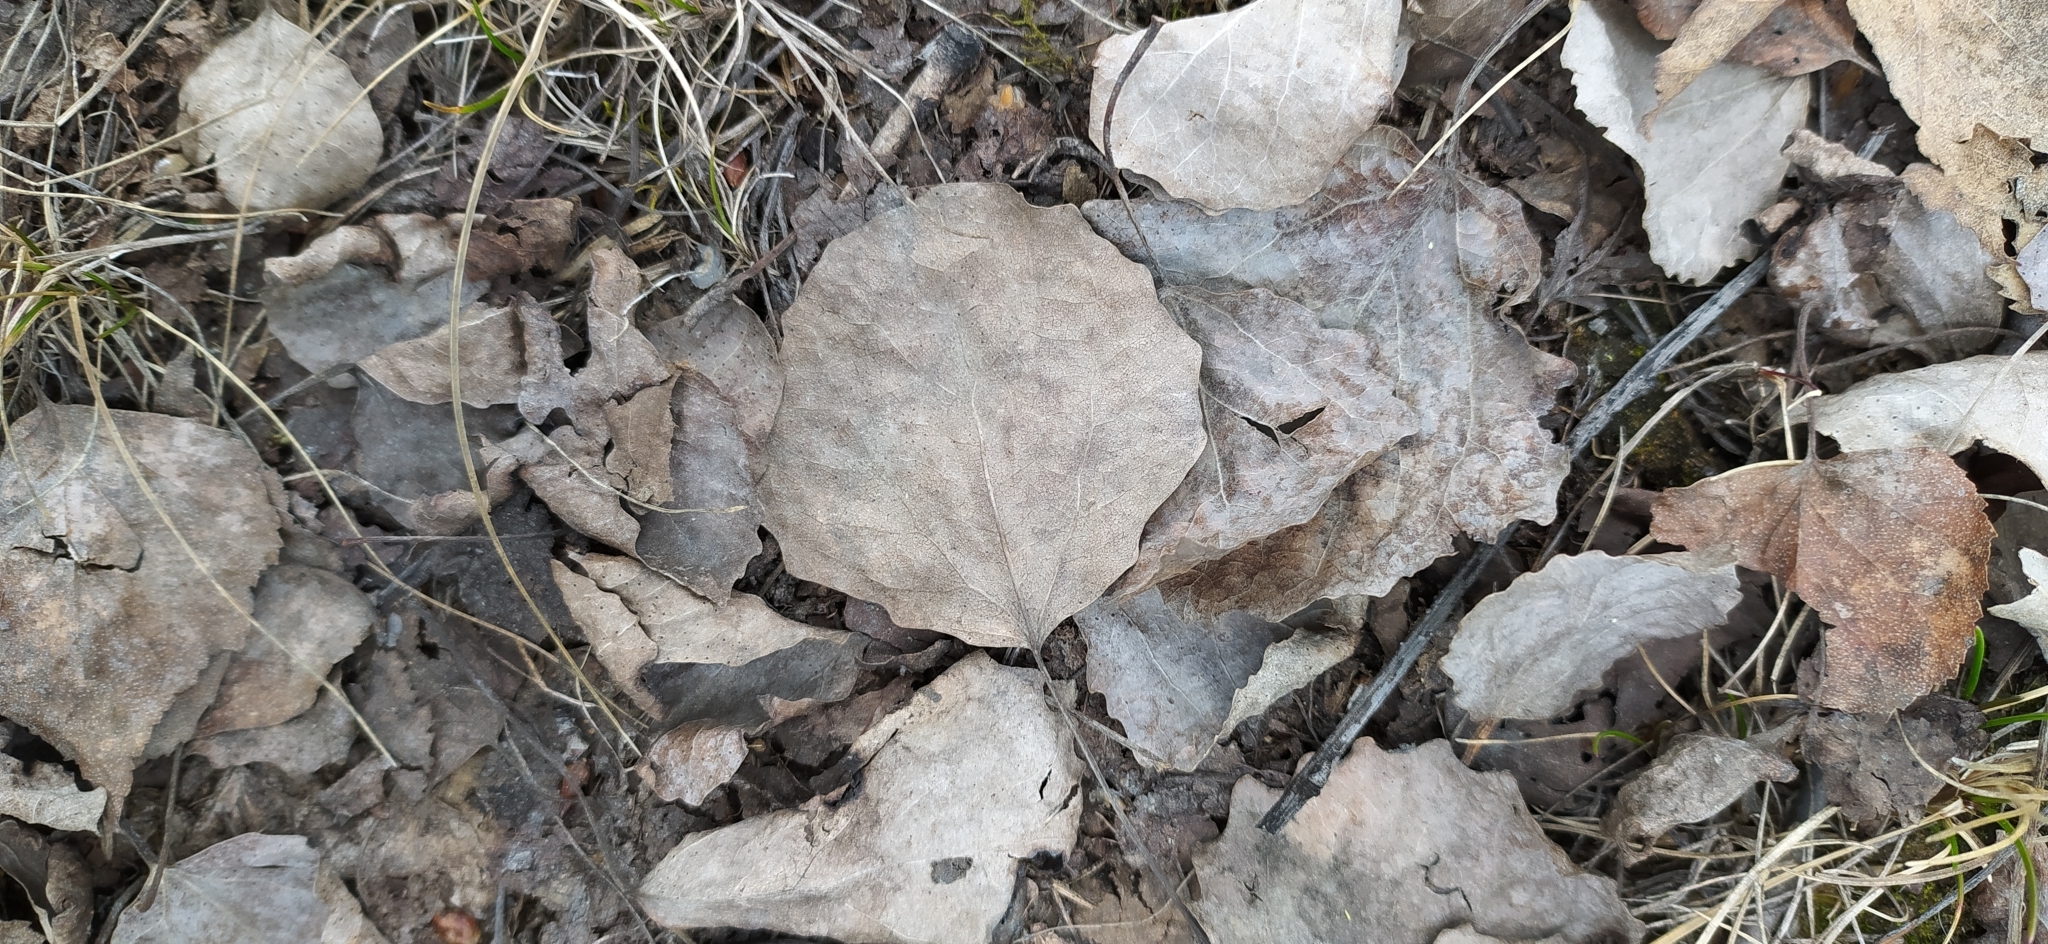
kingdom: Plantae
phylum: Tracheophyta
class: Magnoliopsida
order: Malpighiales
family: Salicaceae
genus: Populus
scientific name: Populus tremula
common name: European aspen
